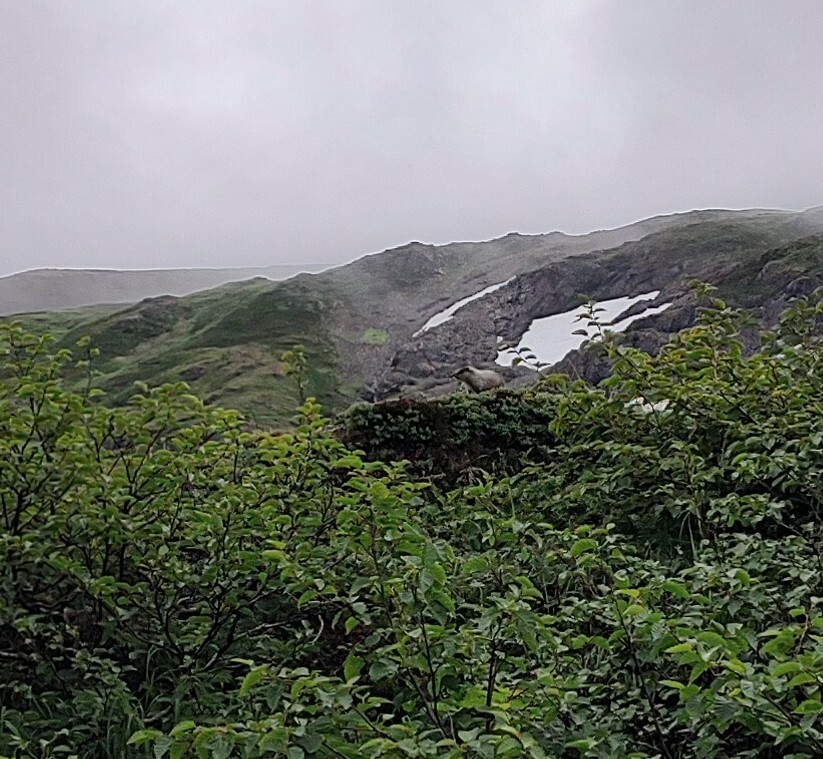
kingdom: Animalia
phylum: Chordata
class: Mammalia
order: Rodentia
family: Sciuridae
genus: Marmota
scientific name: Marmota caligata
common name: Hoary marmot
